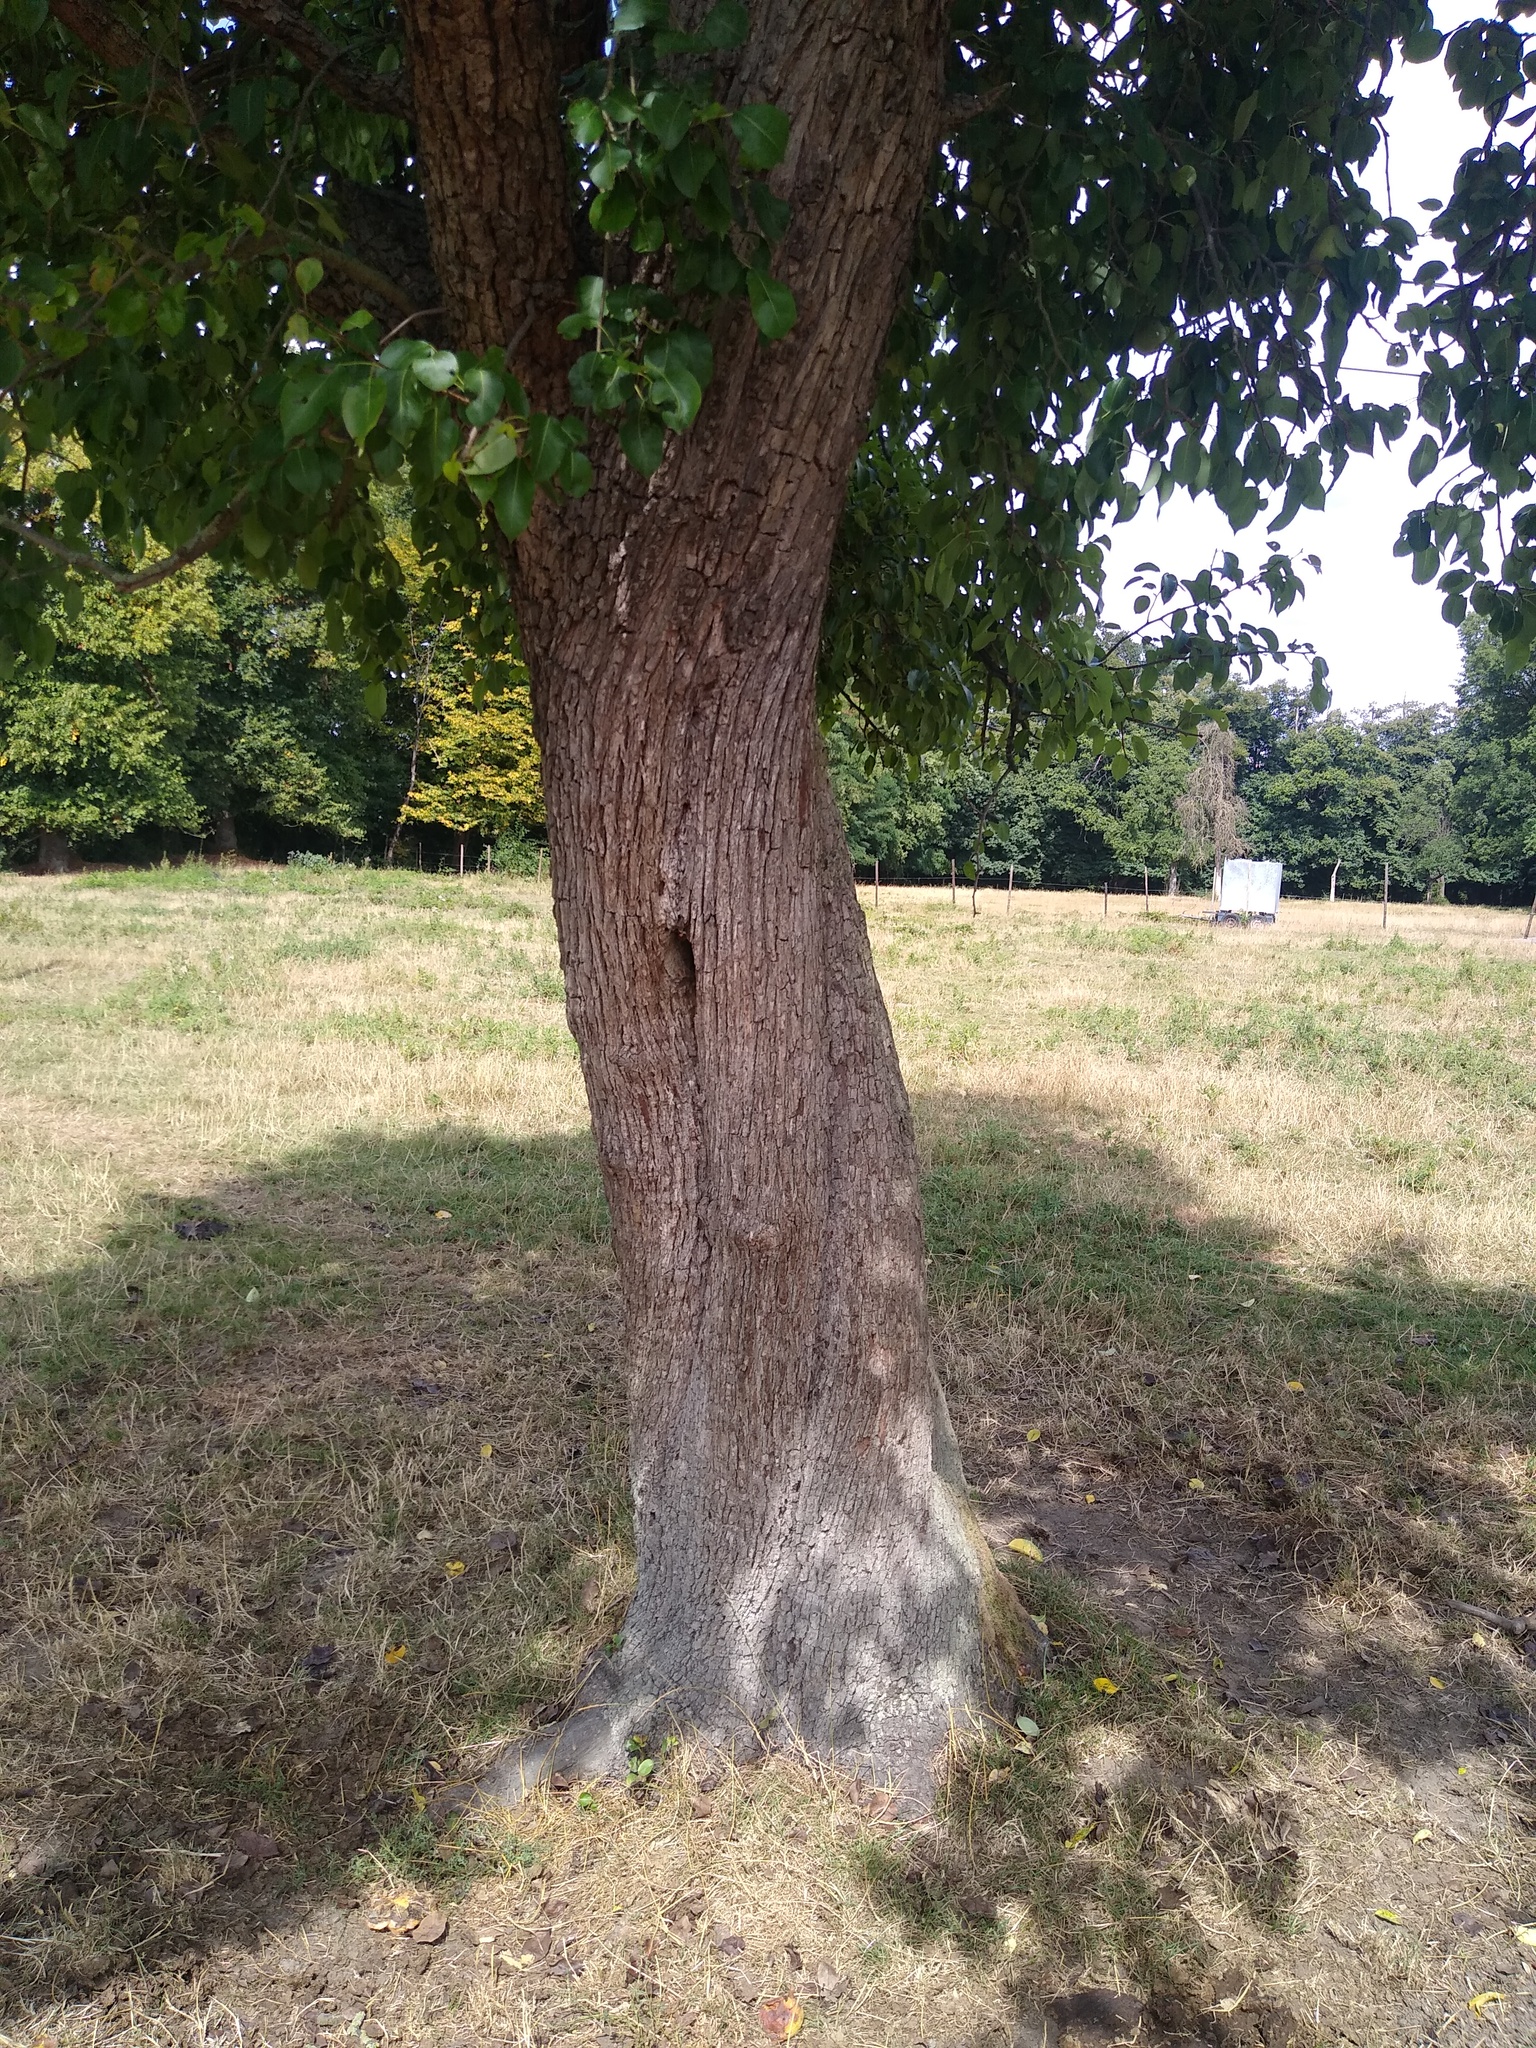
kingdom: Animalia
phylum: Arthropoda
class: Insecta
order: Hymenoptera
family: Vespidae
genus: Vespa
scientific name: Vespa crabro
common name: Hornet
